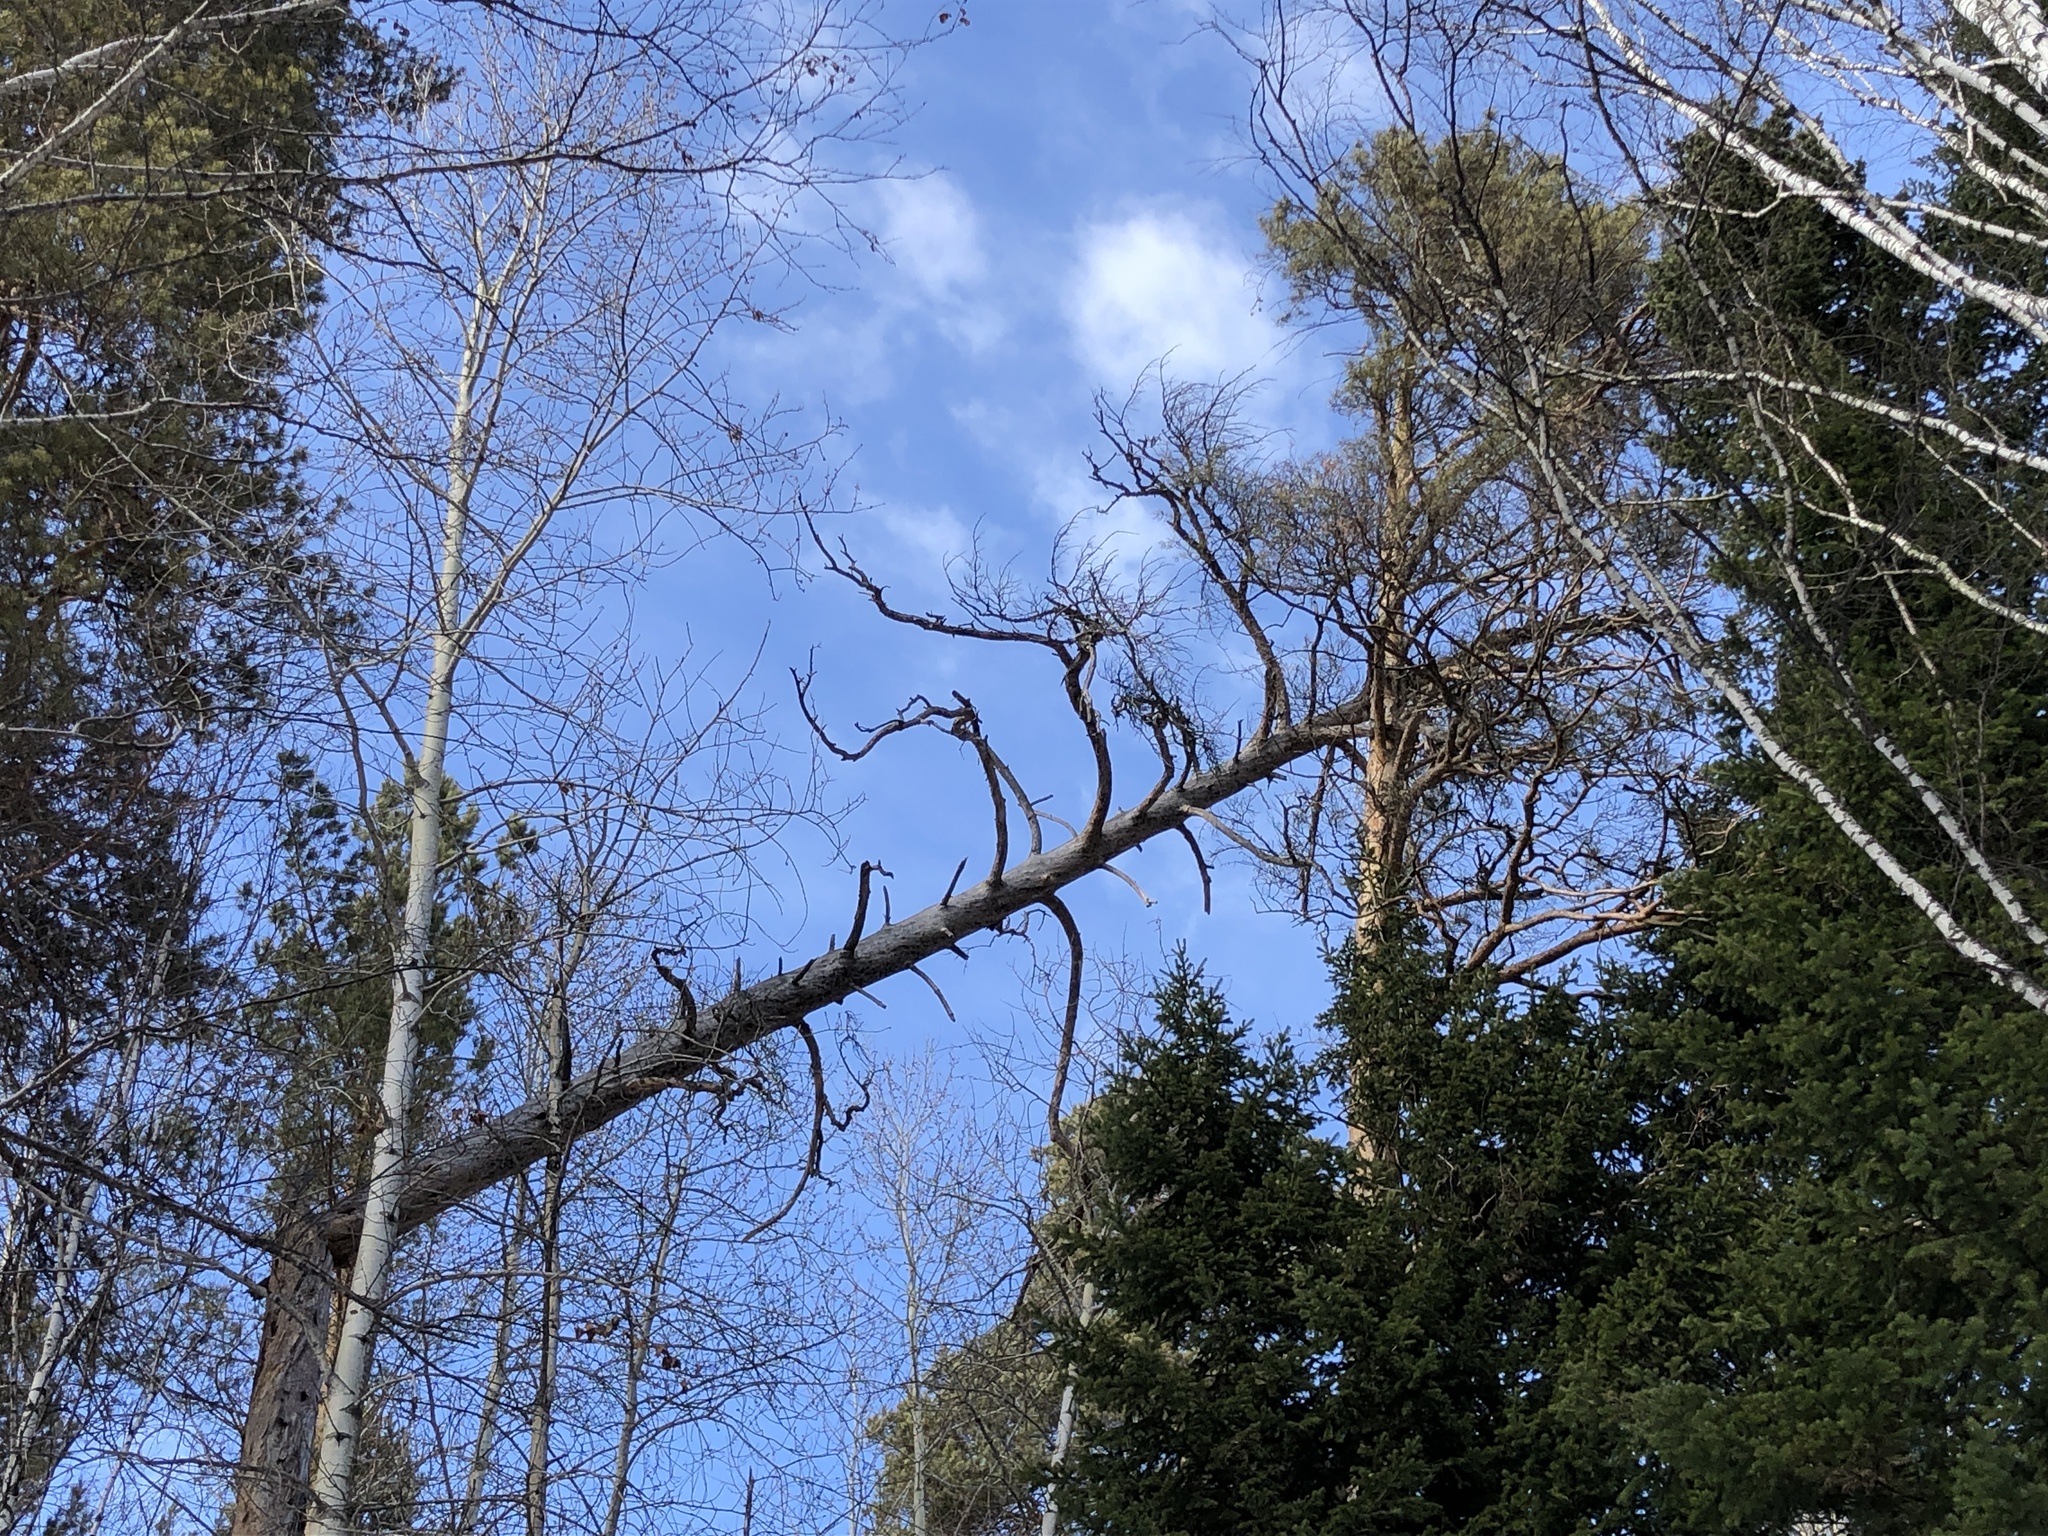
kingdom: Plantae
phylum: Tracheophyta
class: Pinopsida
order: Pinales
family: Pinaceae
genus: Pinus
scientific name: Pinus sylvestris
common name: Scots pine
